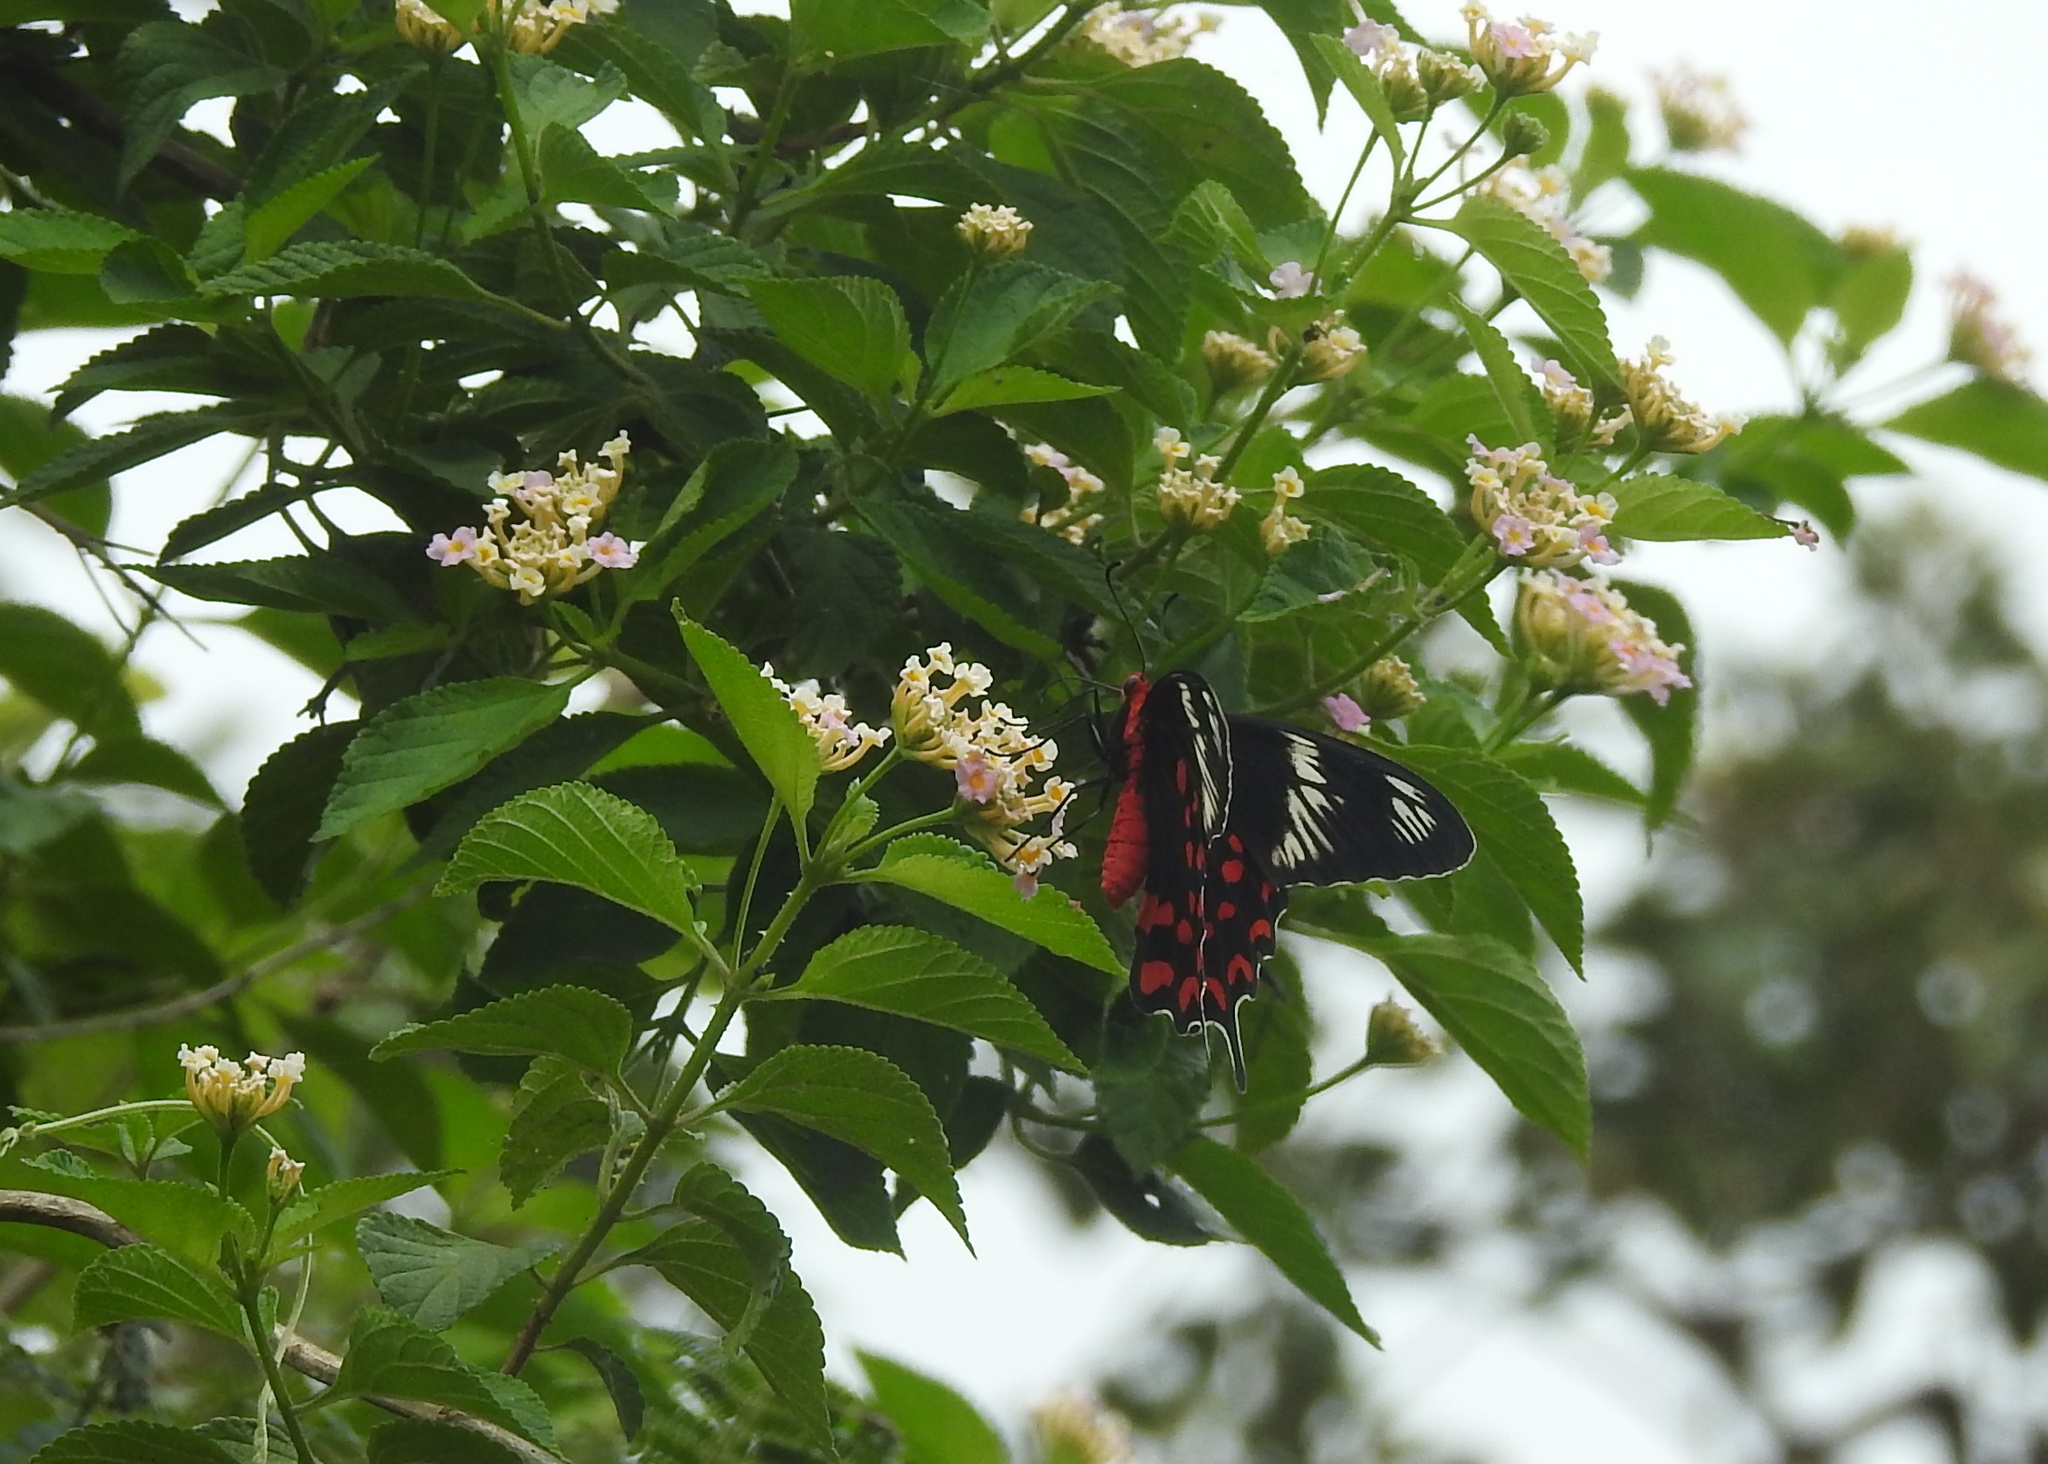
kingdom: Animalia
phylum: Arthropoda
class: Insecta
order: Lepidoptera
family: Papilionidae
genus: Pachliopta
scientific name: Pachliopta hector
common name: Crimson rose
